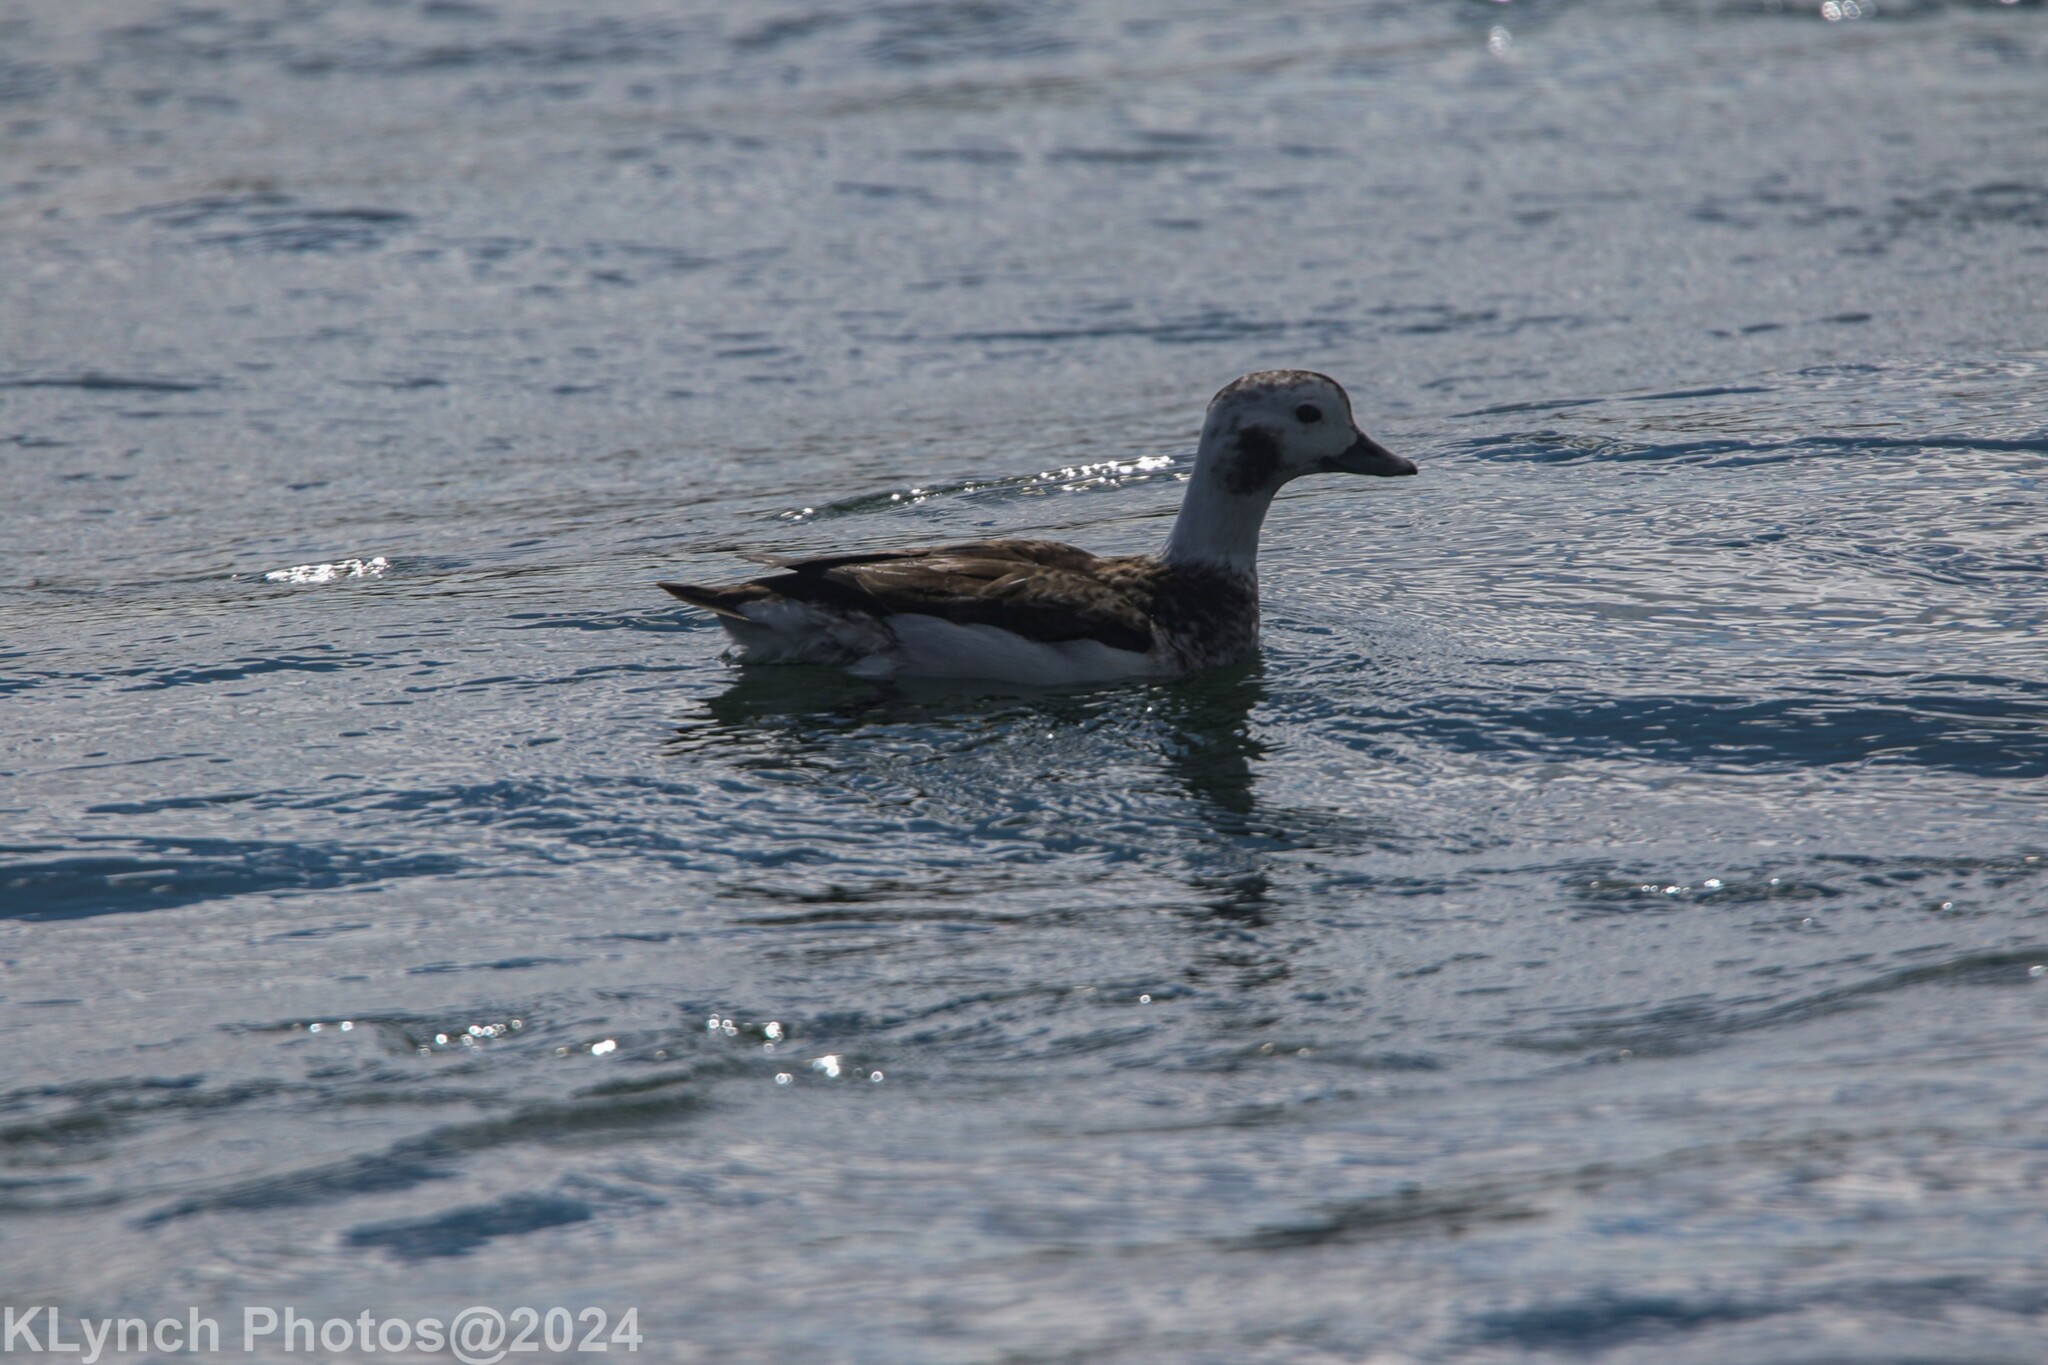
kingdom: Animalia
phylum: Chordata
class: Aves
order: Anseriformes
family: Anatidae
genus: Clangula
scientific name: Clangula hyemalis
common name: Long-tailed duck
